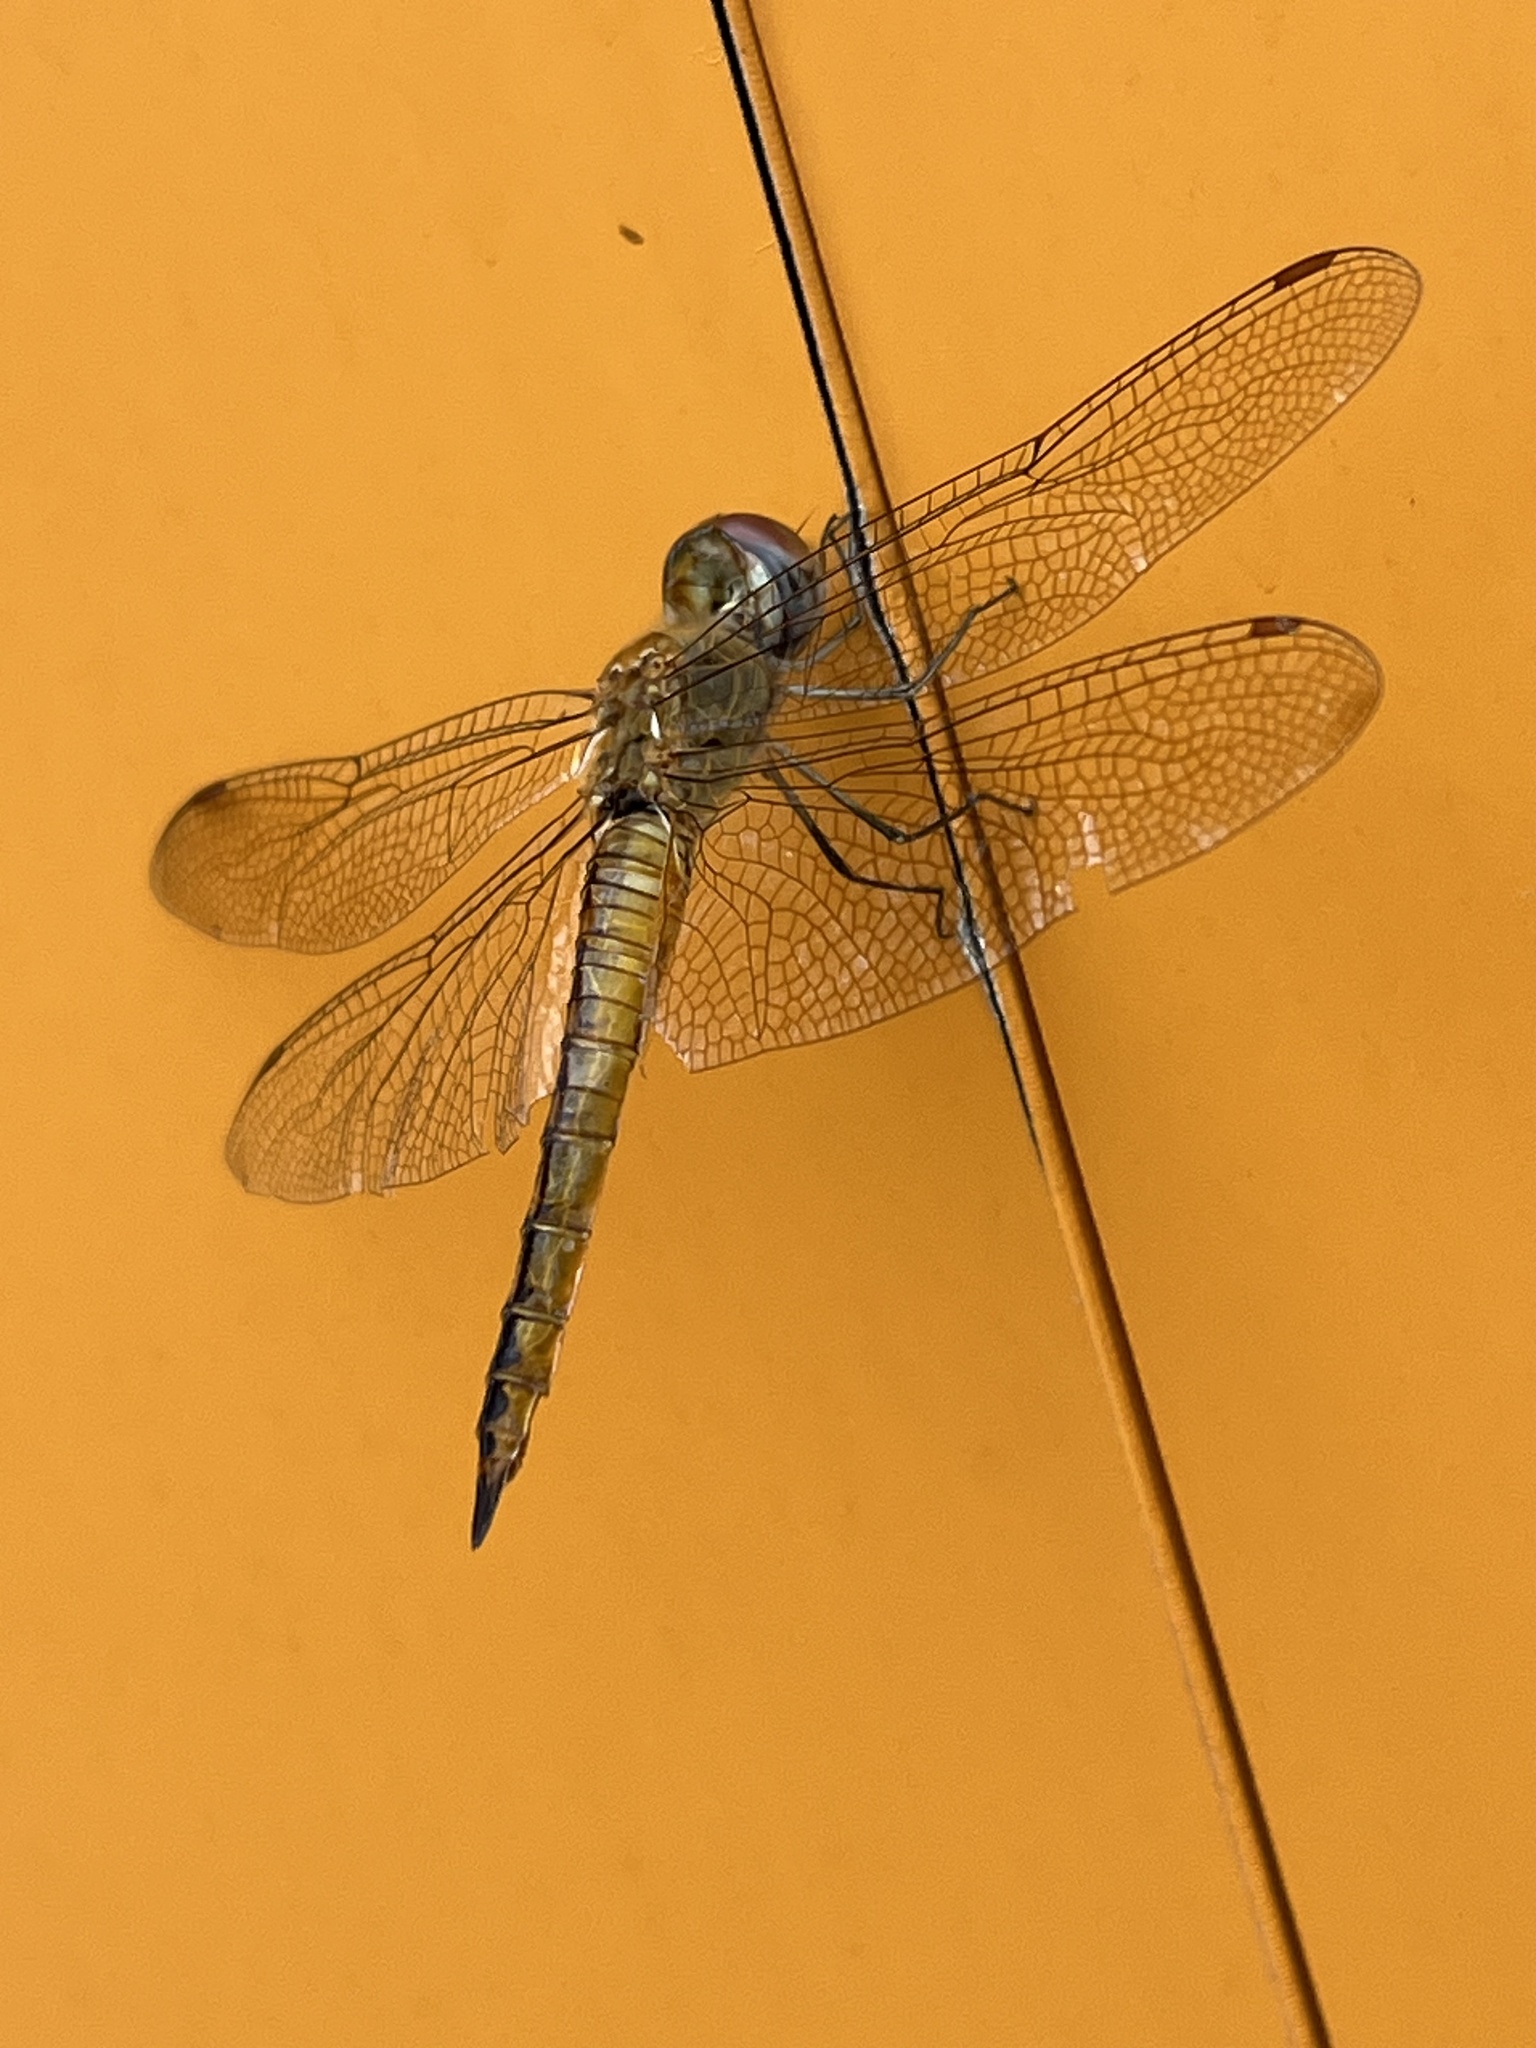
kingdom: Animalia
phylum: Arthropoda
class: Insecta
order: Odonata
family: Libellulidae
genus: Pantala
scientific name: Pantala flavescens
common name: Wandering glider
